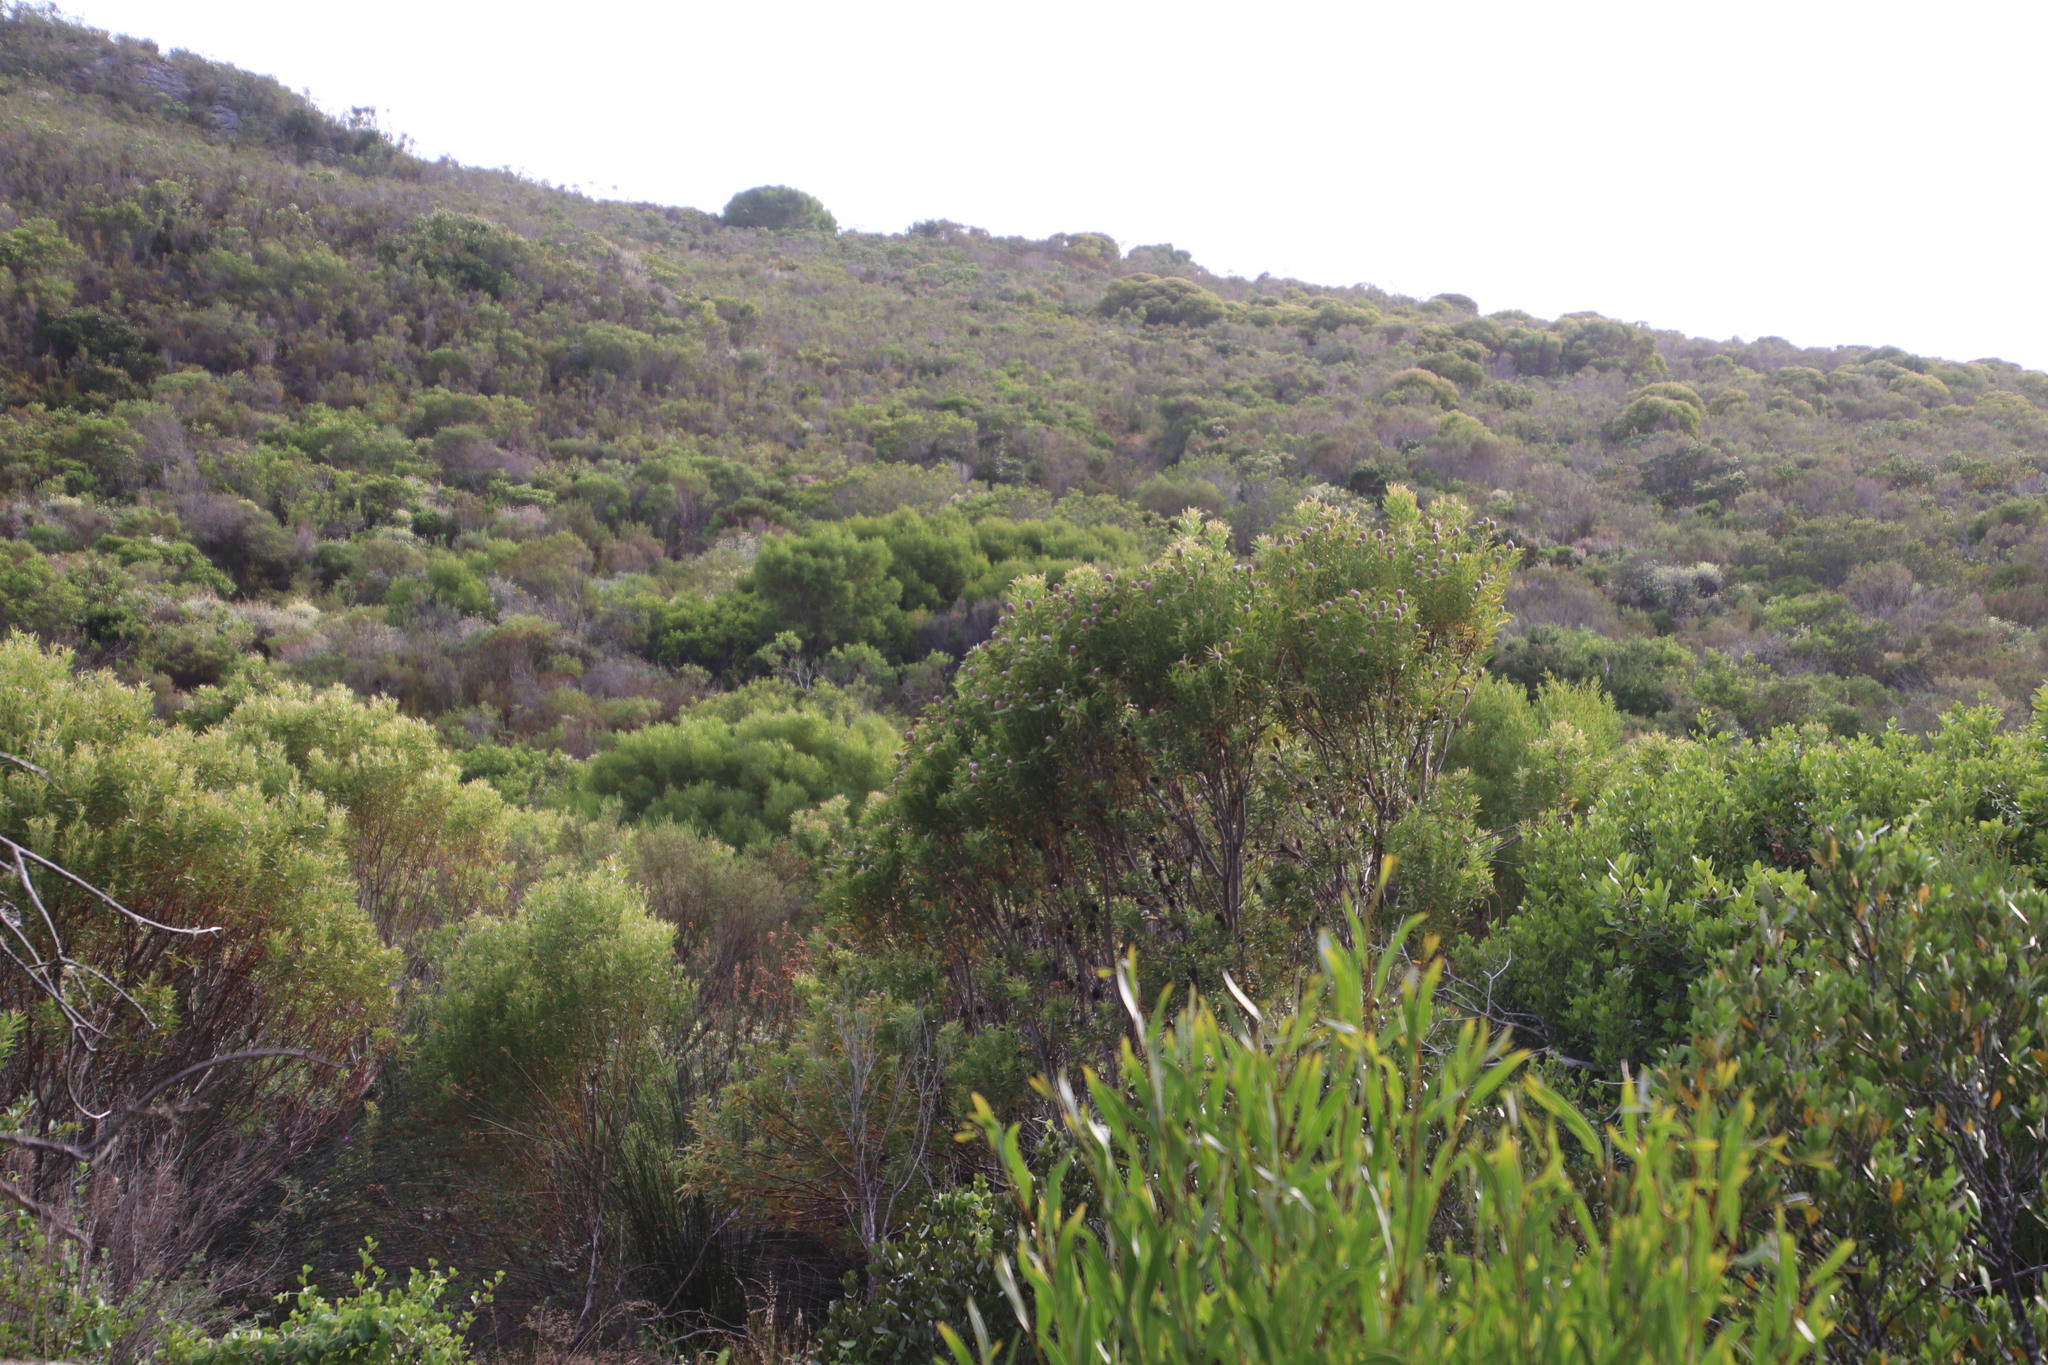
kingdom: Plantae
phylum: Tracheophyta
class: Magnoliopsida
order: Proteales
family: Proteaceae
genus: Leucadendron
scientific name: Leucadendron coniferum
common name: Dune conebush
